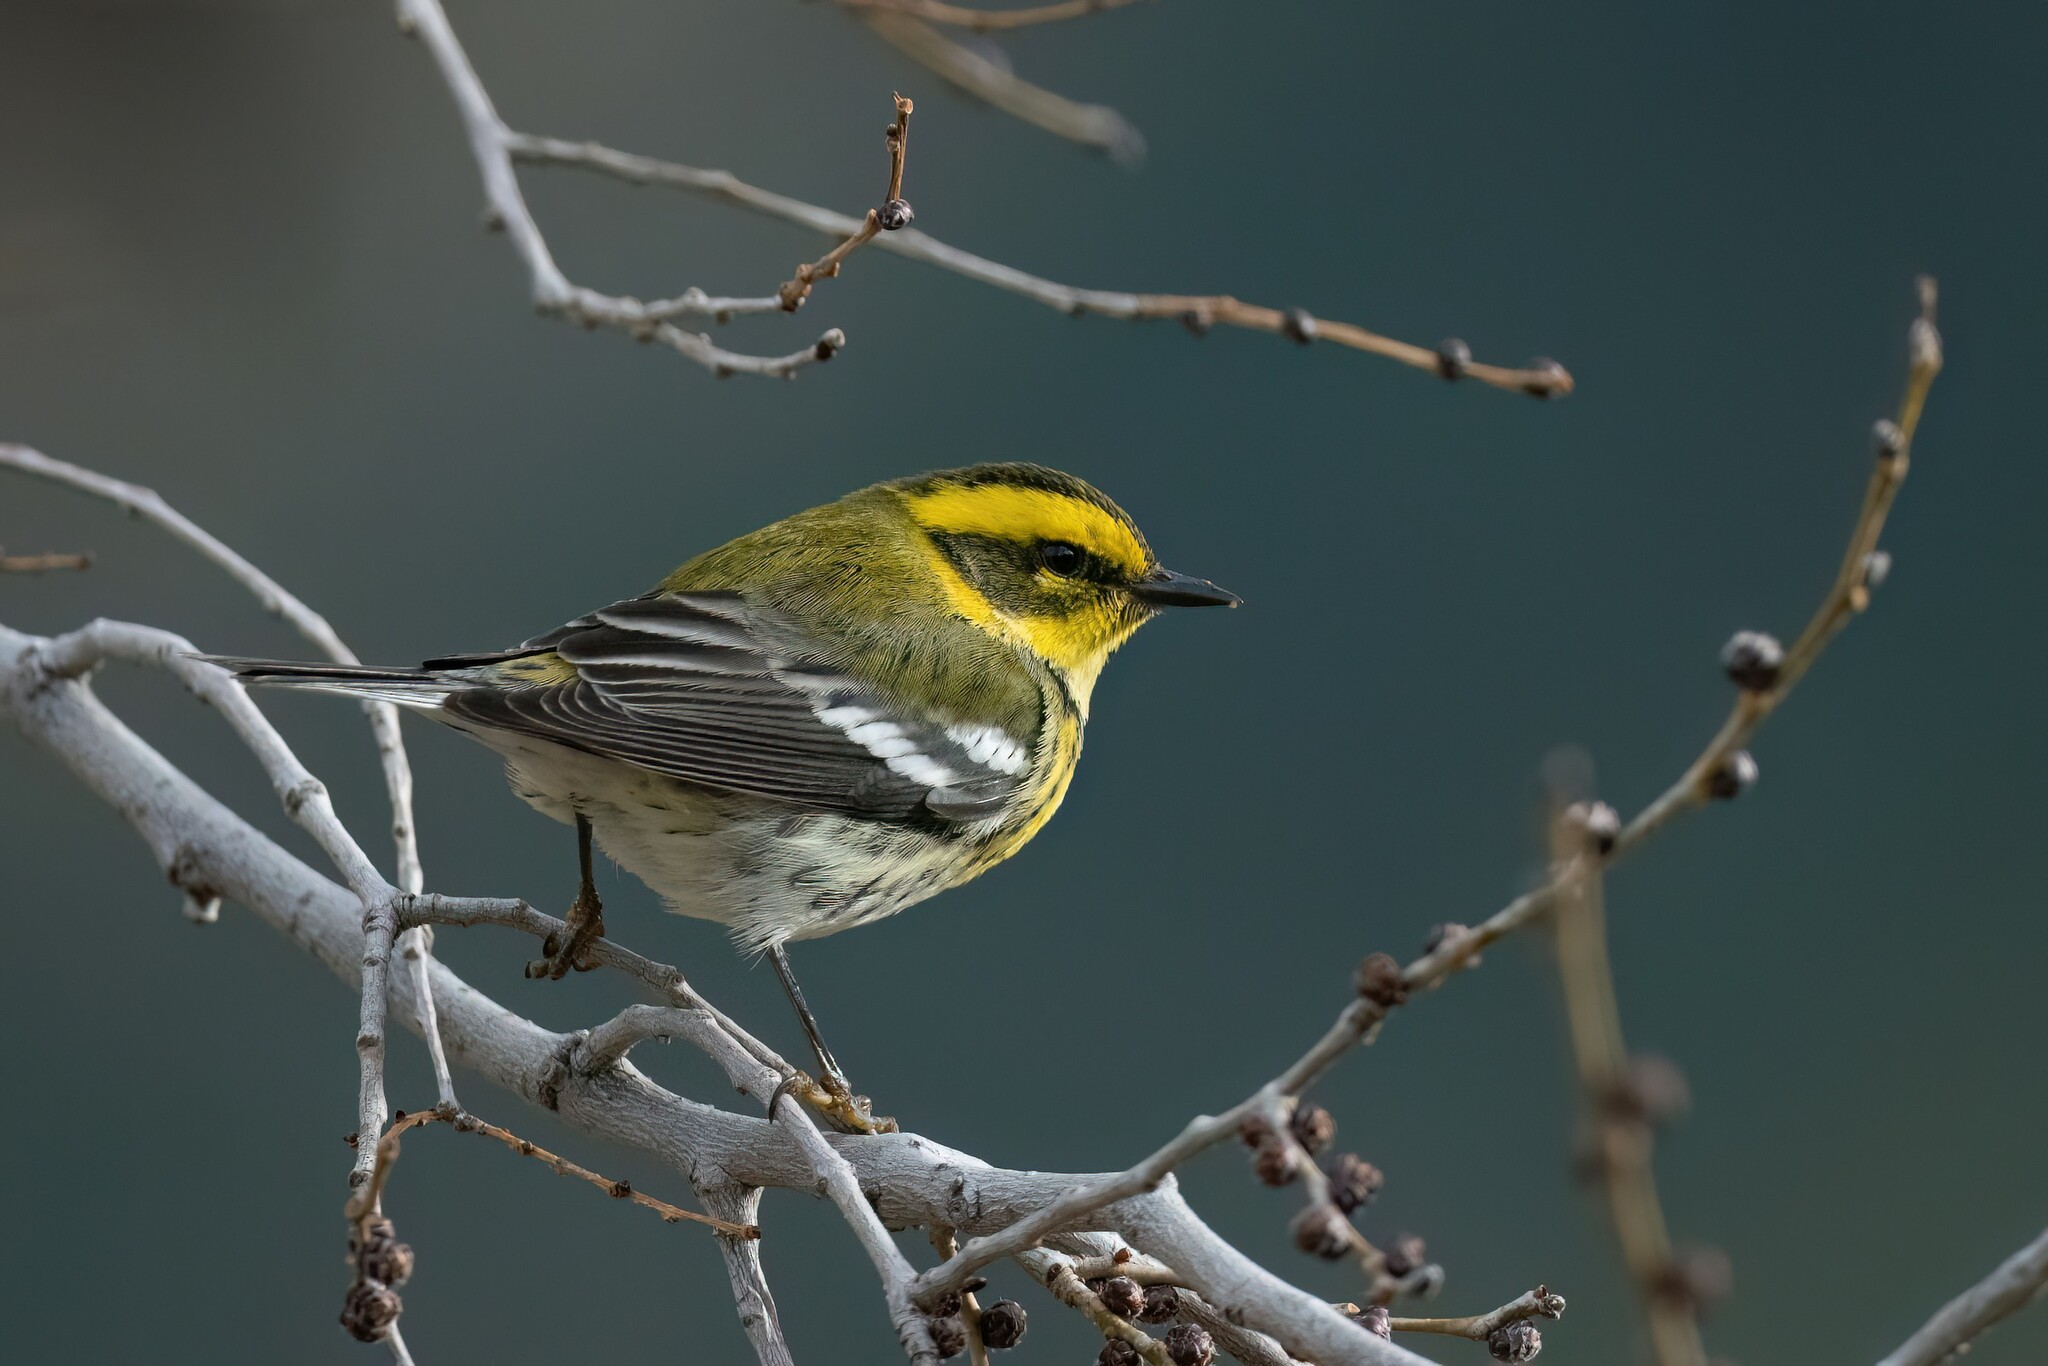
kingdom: Animalia
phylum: Chordata
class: Aves
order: Passeriformes
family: Parulidae
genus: Setophaga
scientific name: Setophaga townsendi
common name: Townsend's warbler
